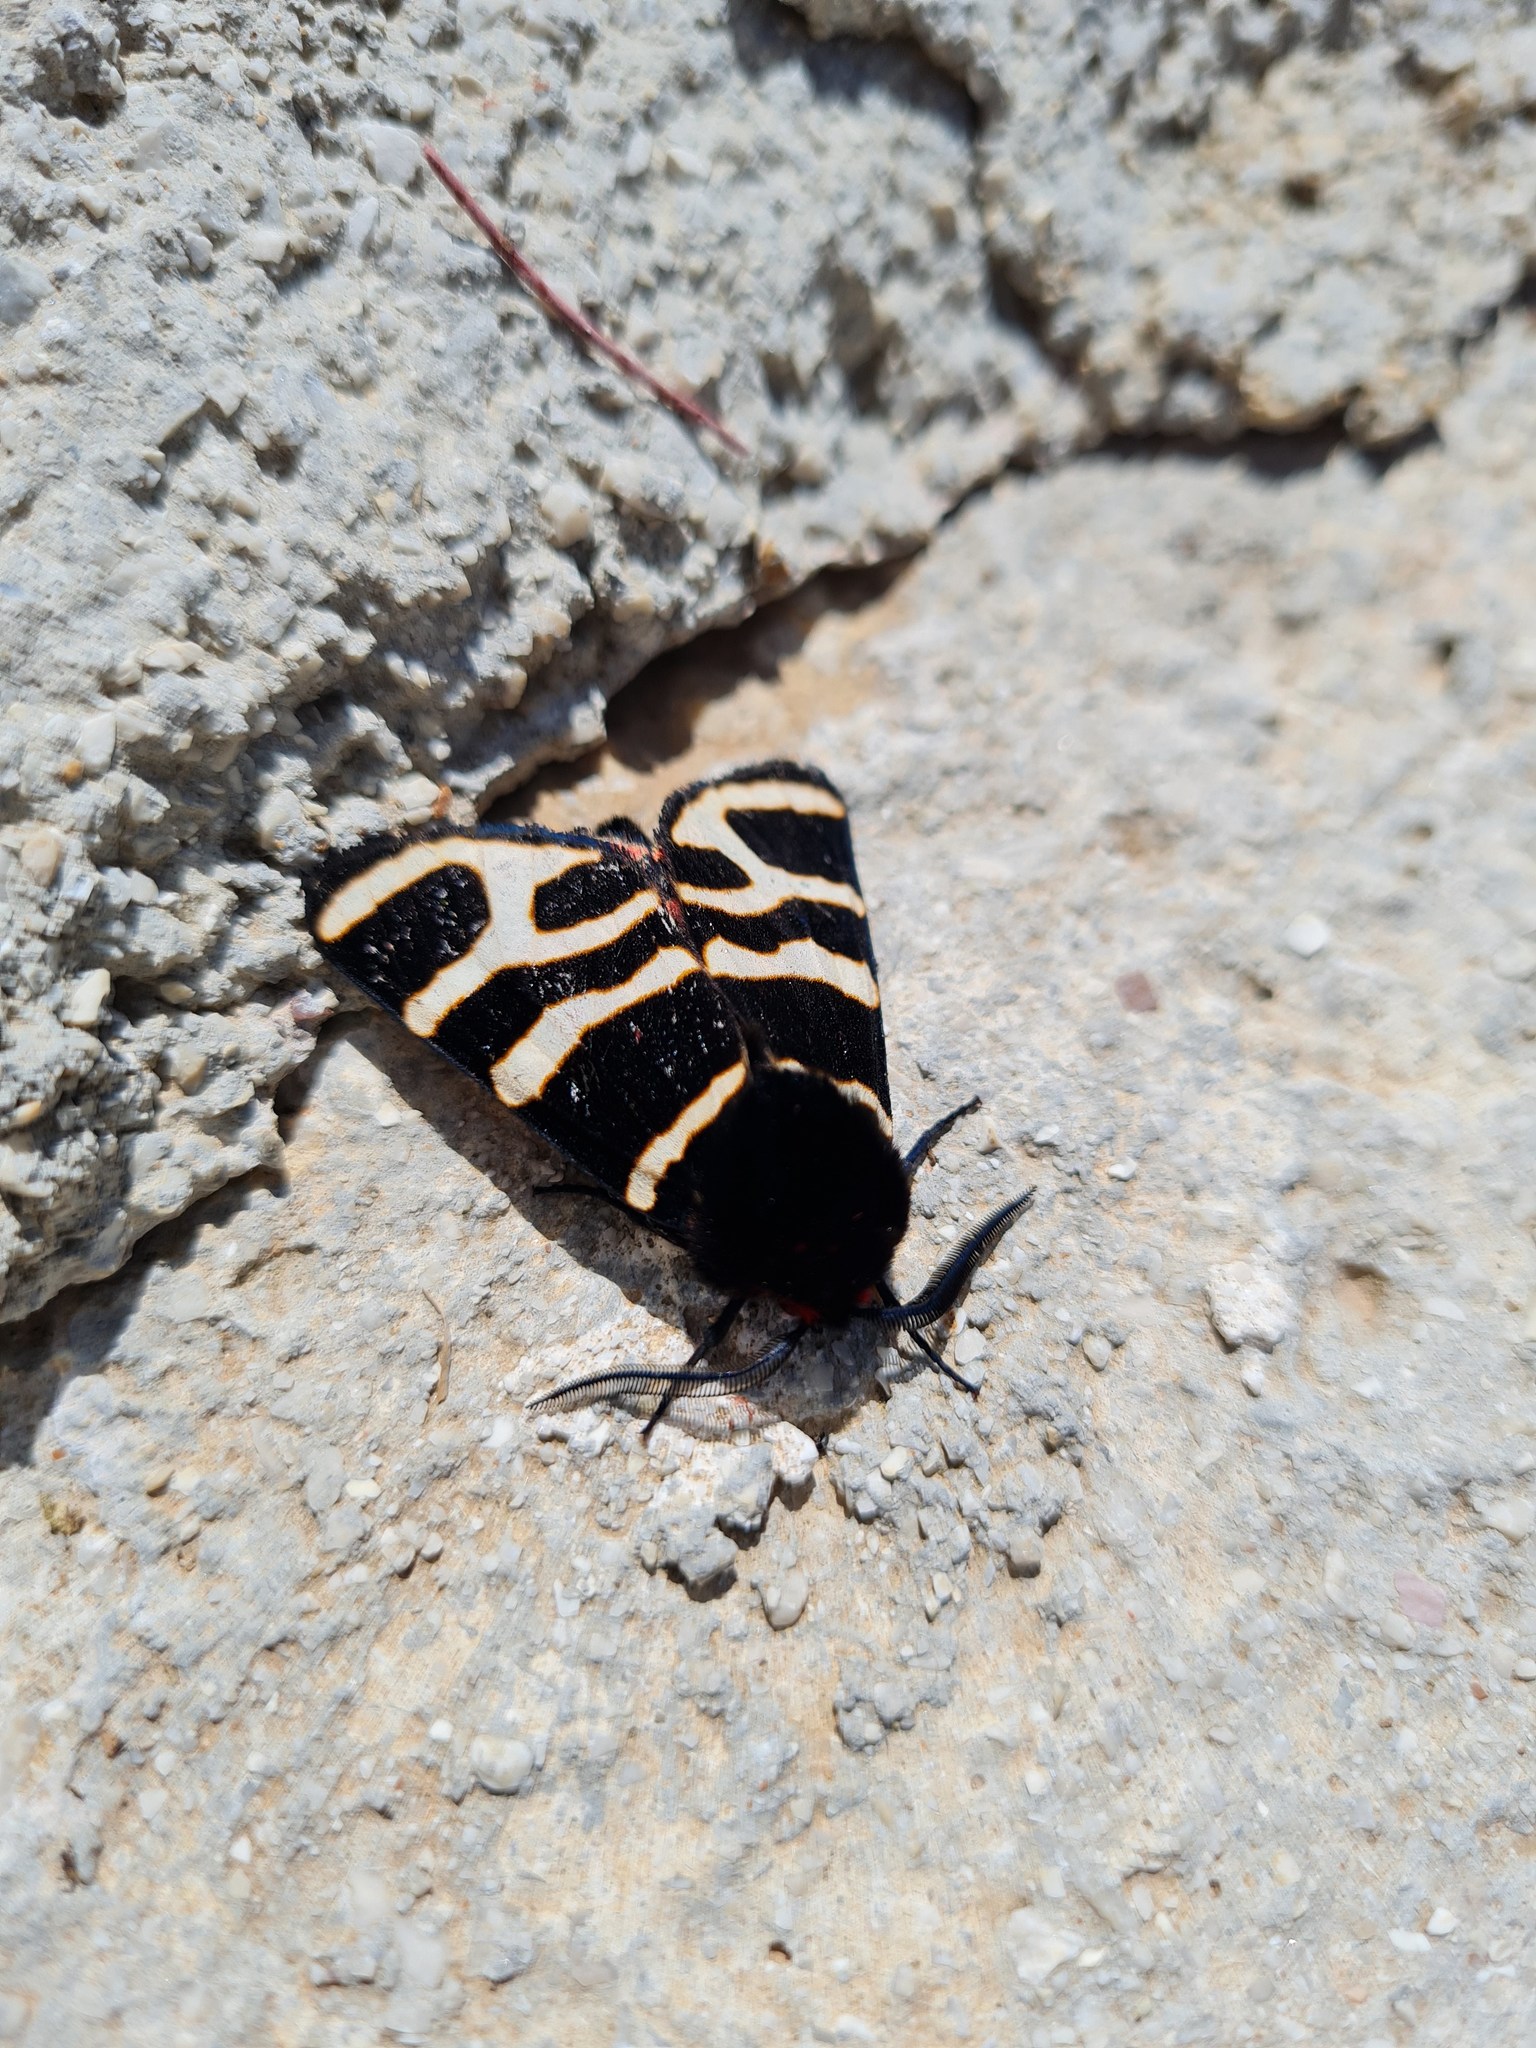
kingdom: Animalia
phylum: Arthropoda
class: Insecta
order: Lepidoptera
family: Erebidae
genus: Eucharia
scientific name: Eucharia festiva
